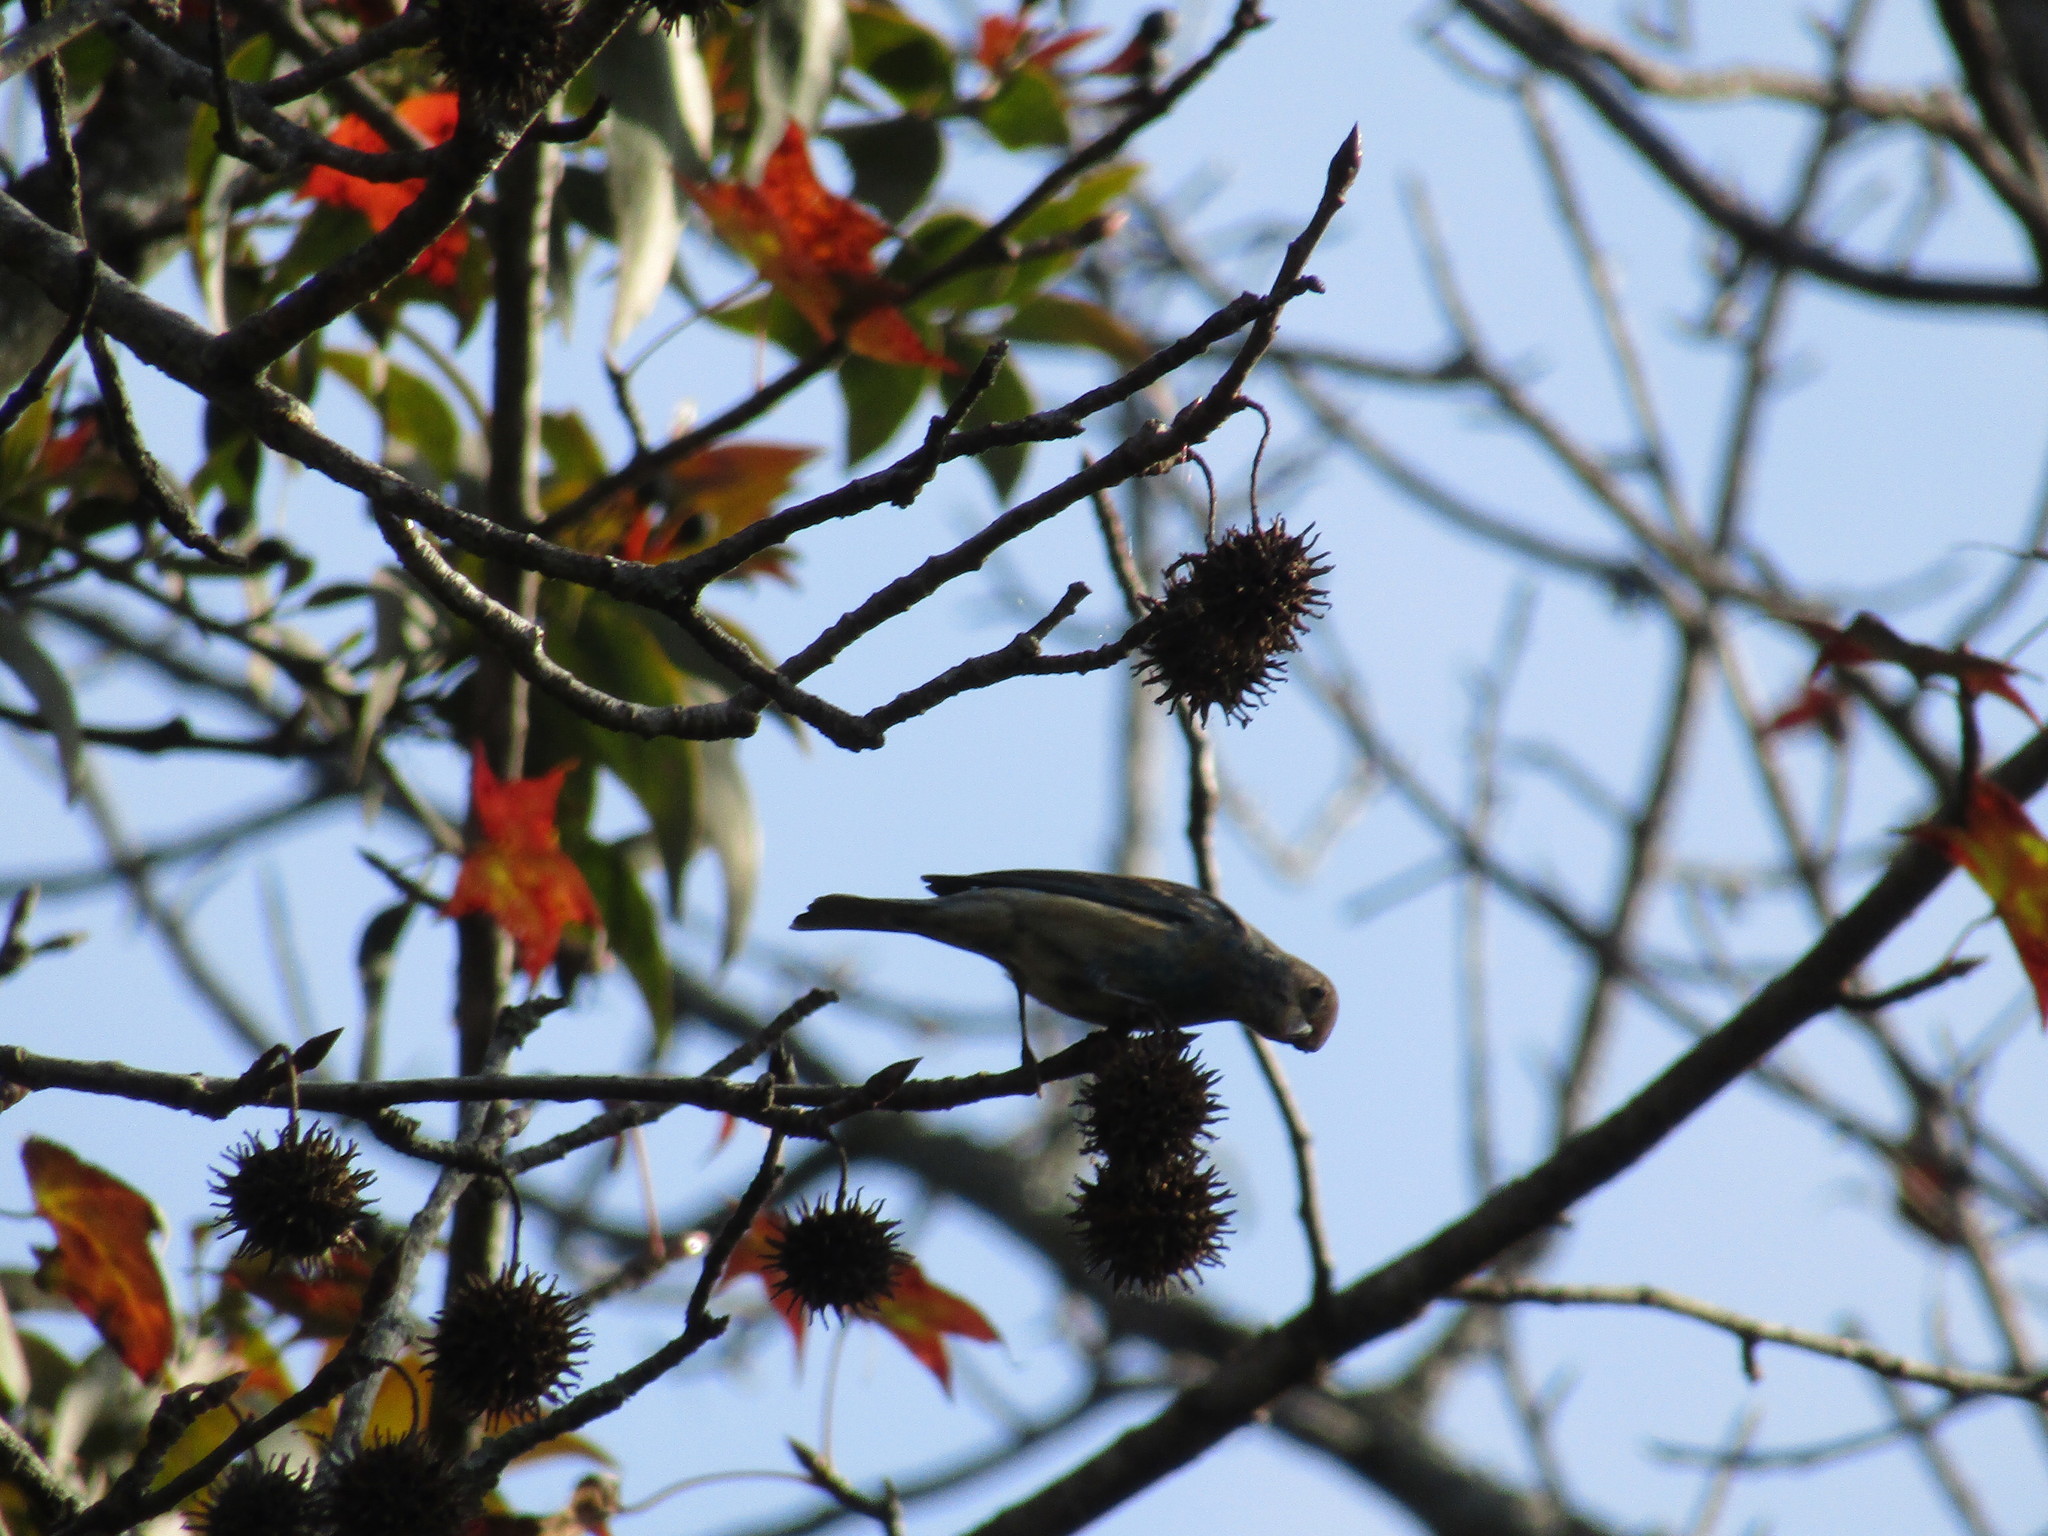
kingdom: Animalia
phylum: Chordata
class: Aves
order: Passeriformes
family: Fringillidae
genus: Spinus
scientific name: Spinus psaltria
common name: Lesser goldfinch
